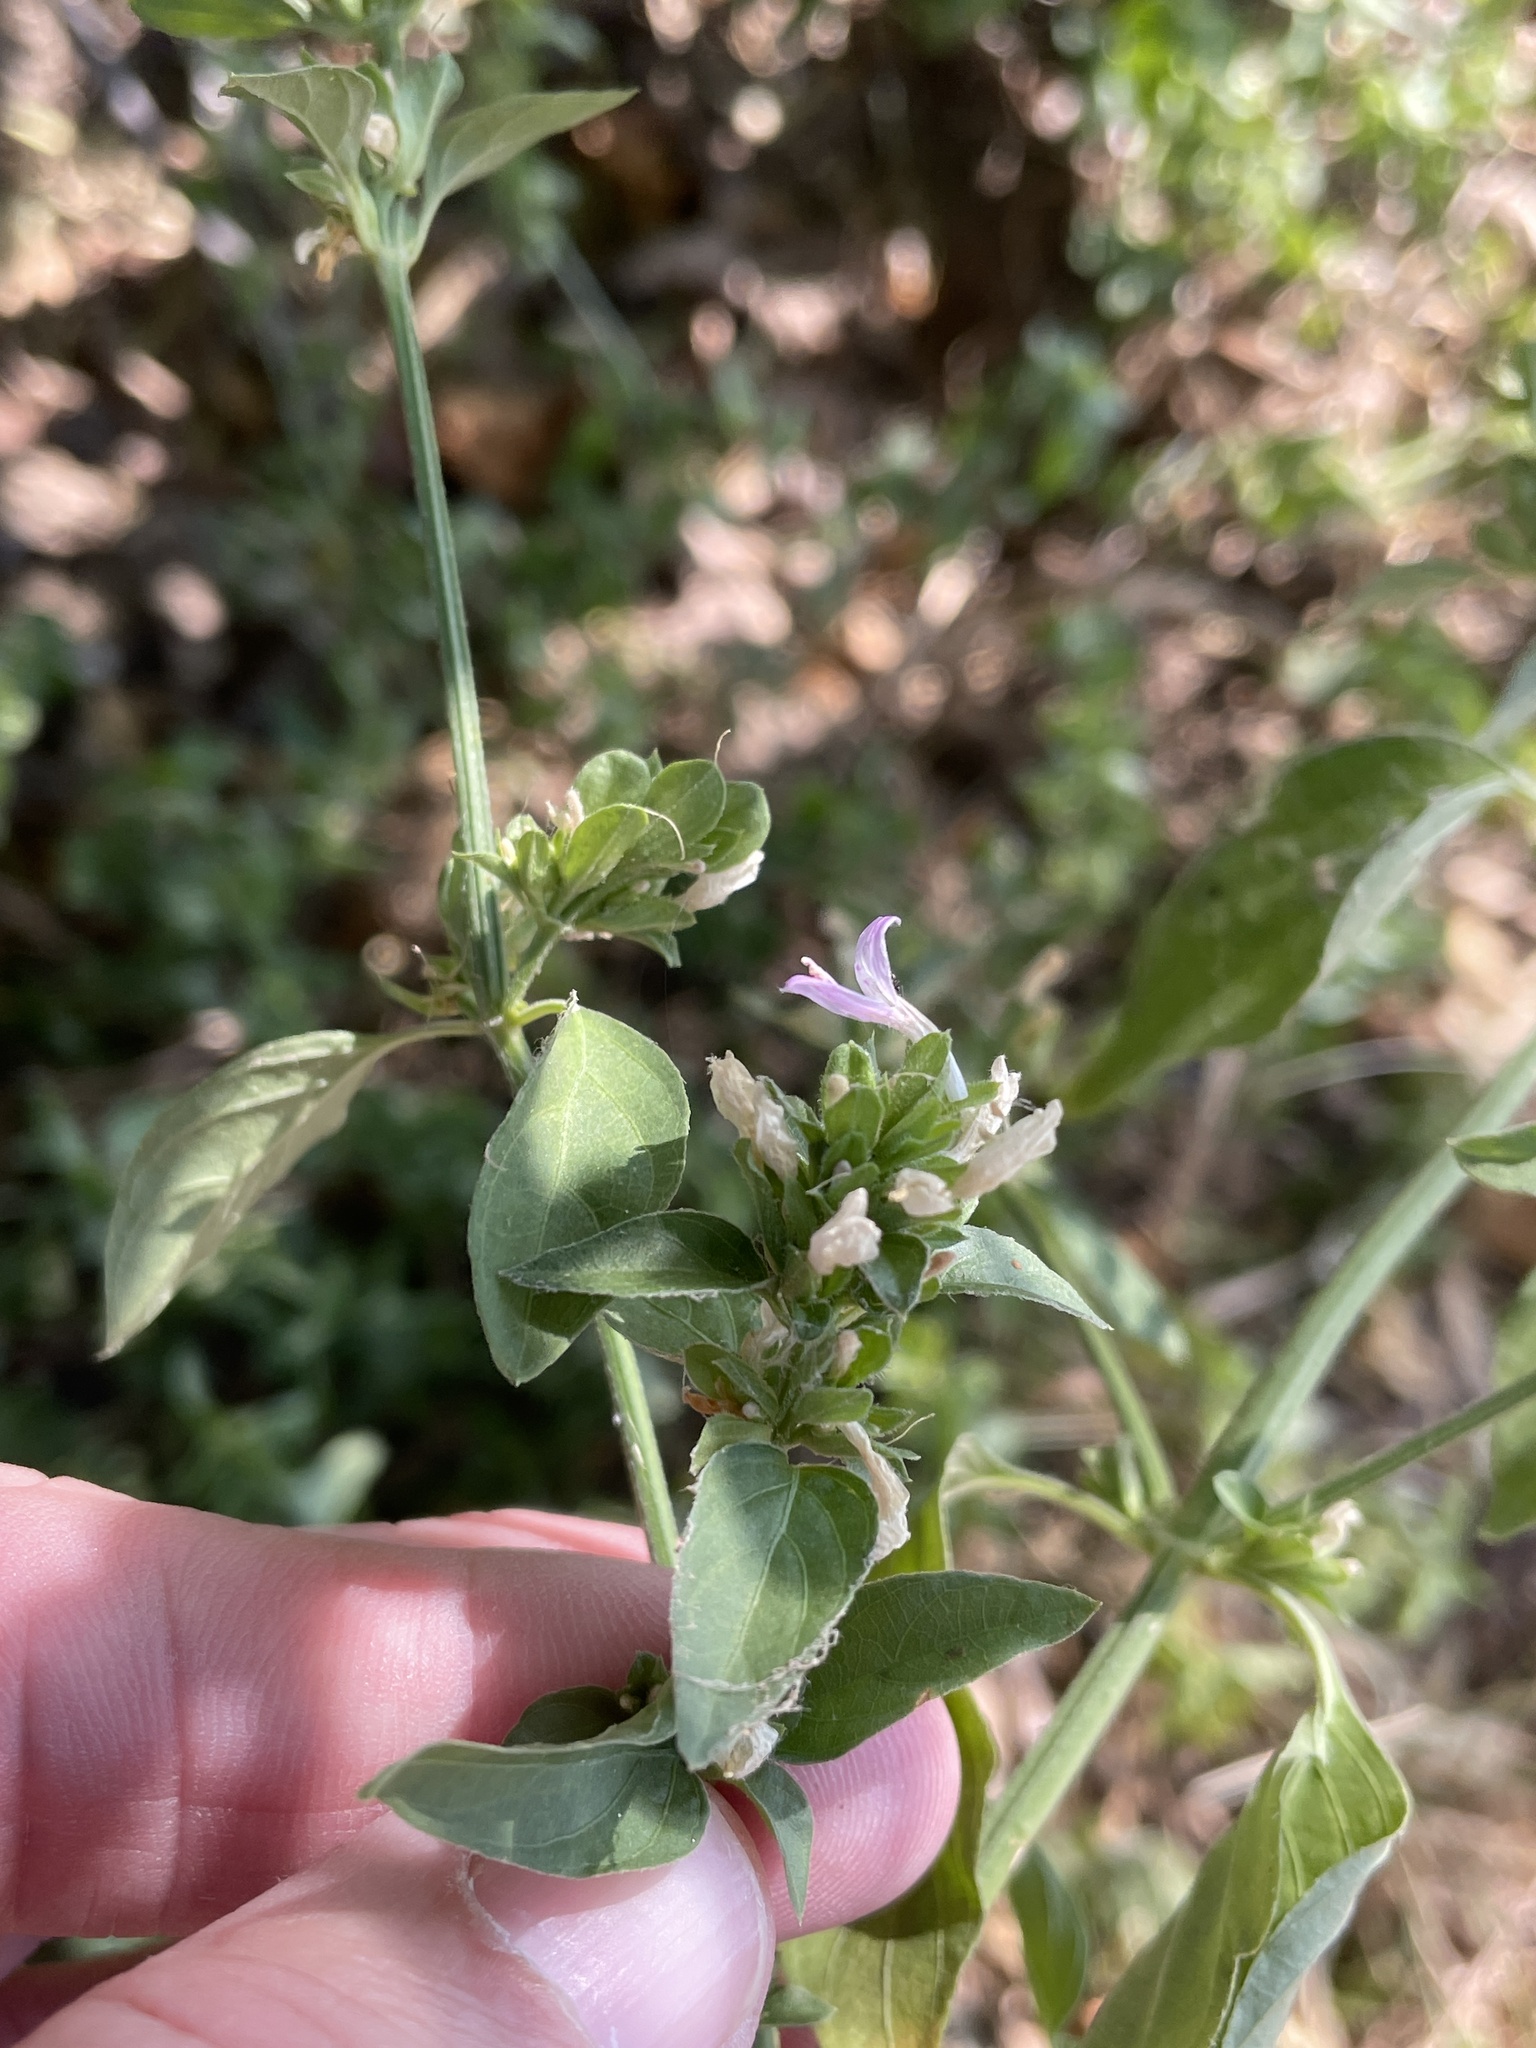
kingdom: Plantae
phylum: Tracheophyta
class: Magnoliopsida
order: Lamiales
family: Acanthaceae
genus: Dicliptera
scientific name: Dicliptera brachiata
